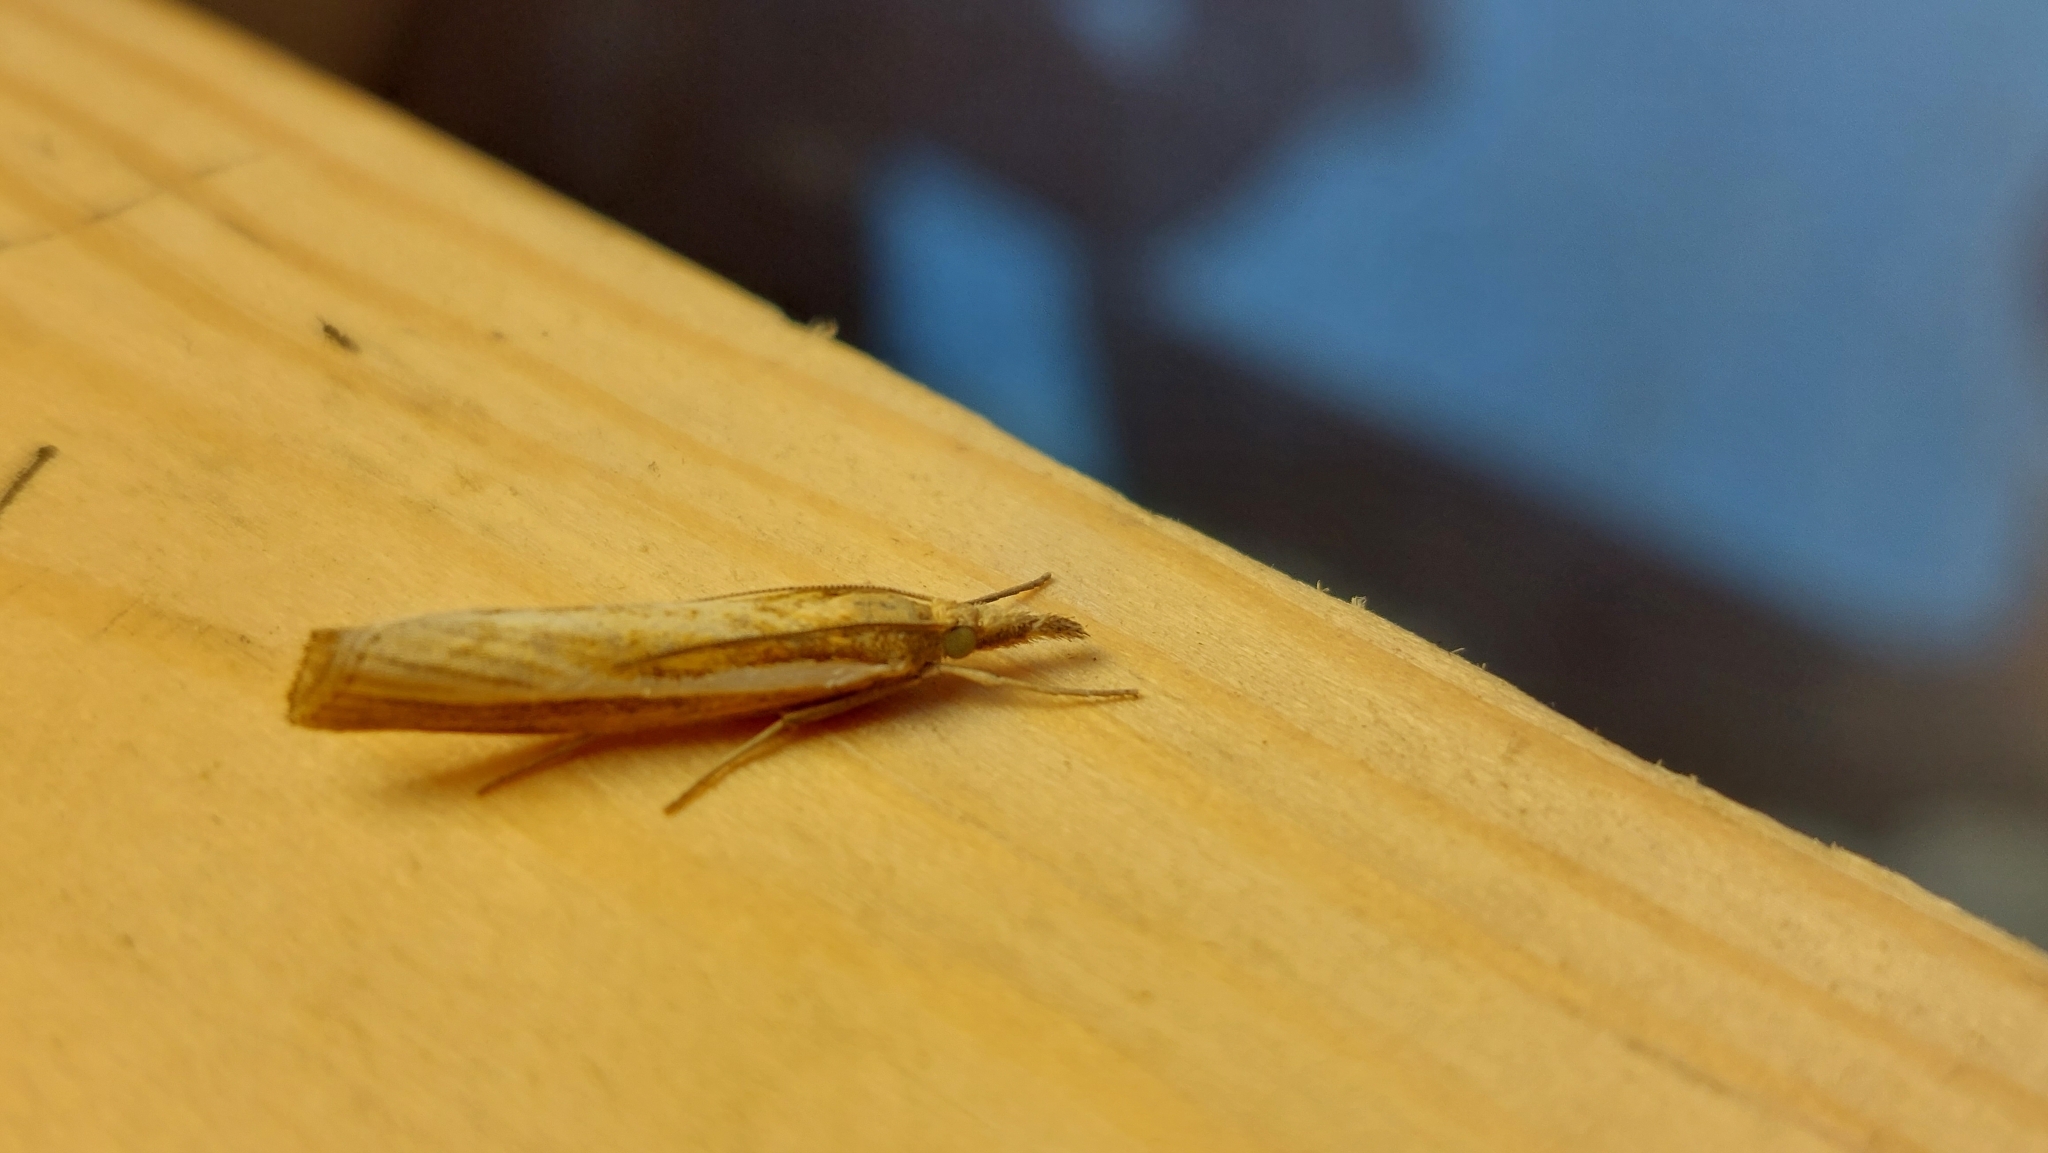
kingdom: Animalia
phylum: Arthropoda
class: Insecta
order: Lepidoptera
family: Crambidae
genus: Agriphila
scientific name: Agriphila tristellus
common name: Common grass-veneer
